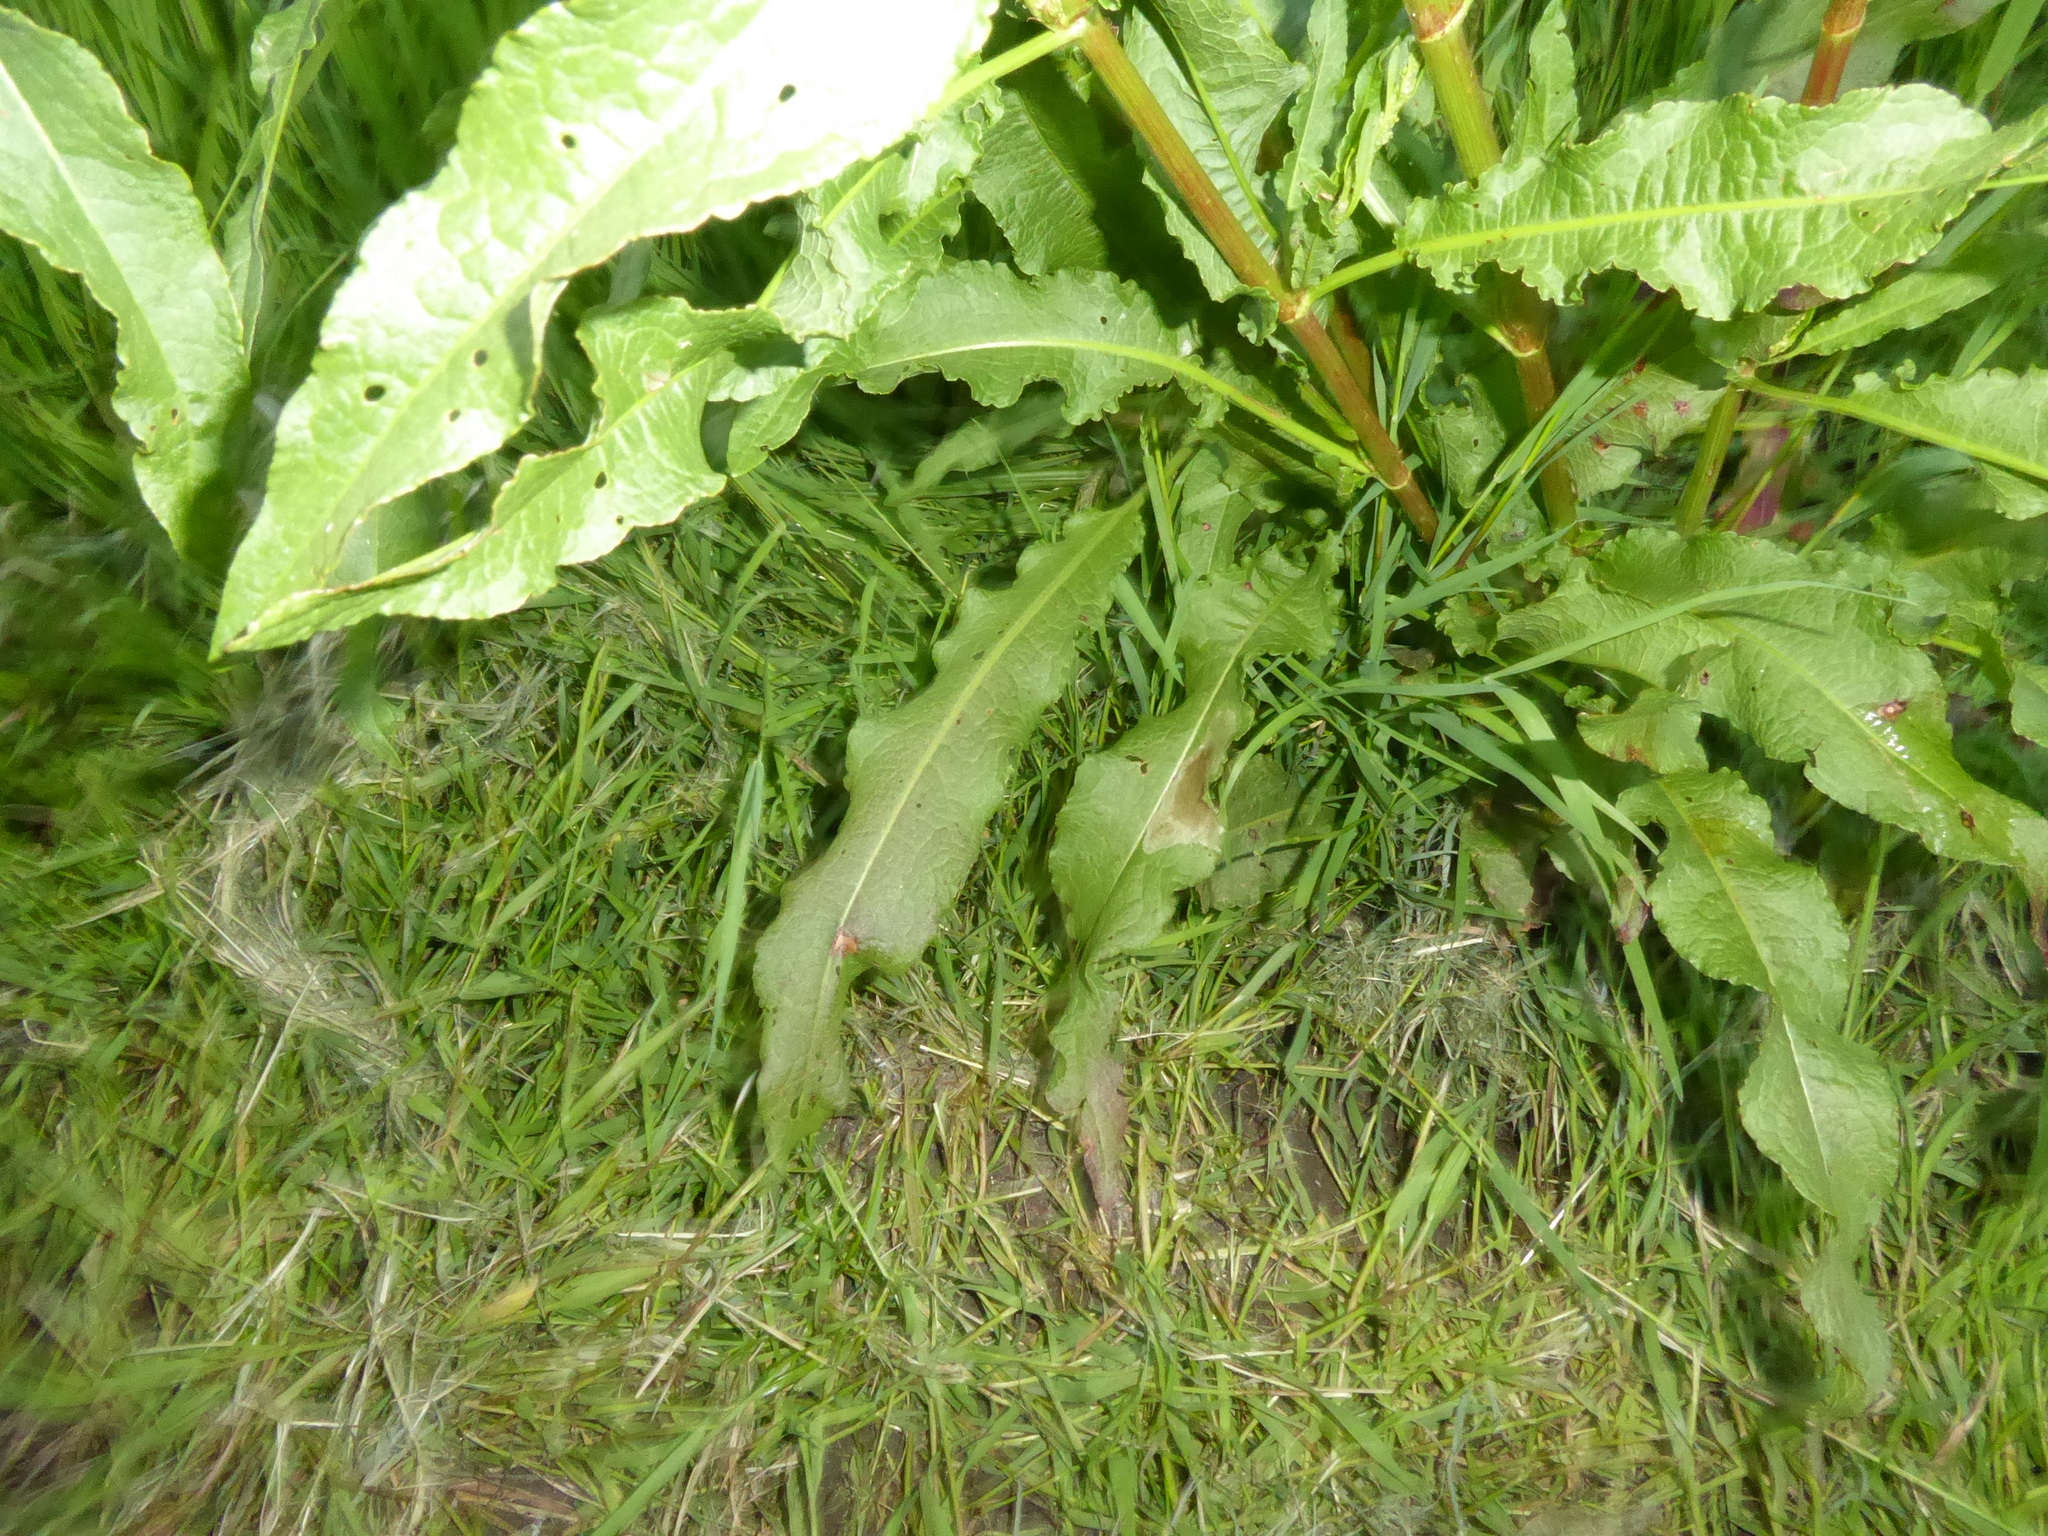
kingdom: Plantae
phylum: Tracheophyta
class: Magnoliopsida
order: Caryophyllales
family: Polygonaceae
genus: Rumex
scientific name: Rumex crispus
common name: Curled dock
